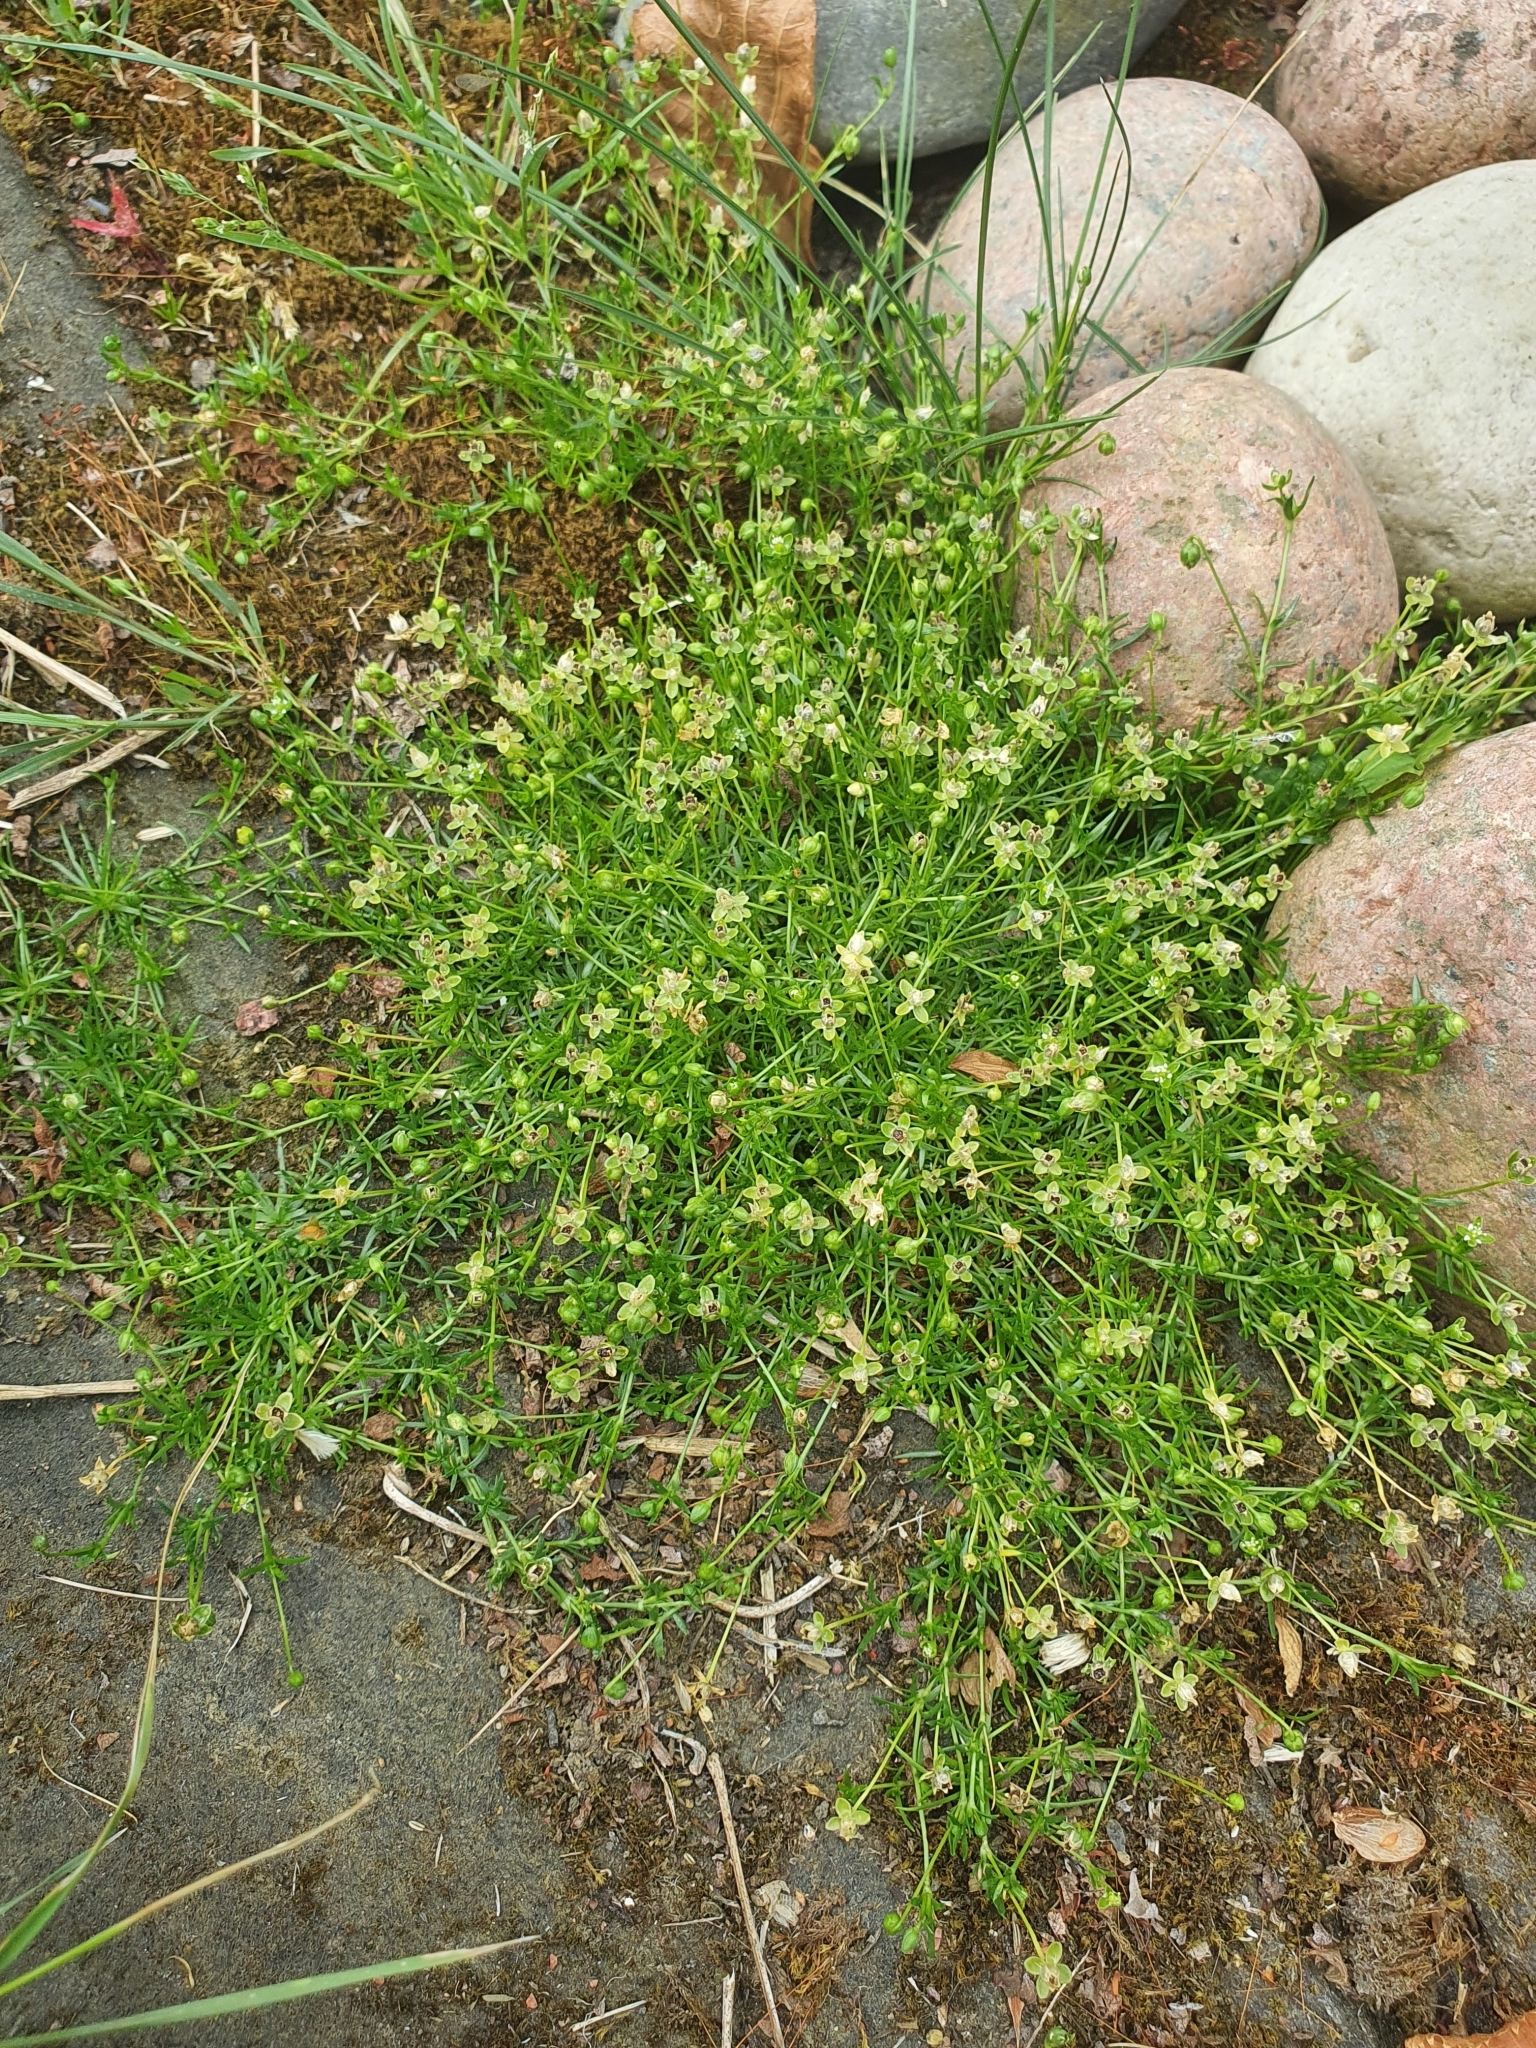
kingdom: Plantae
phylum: Tracheophyta
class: Magnoliopsida
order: Caryophyllales
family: Caryophyllaceae
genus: Sagina
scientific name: Sagina procumbens
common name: Procumbent pearlwort
